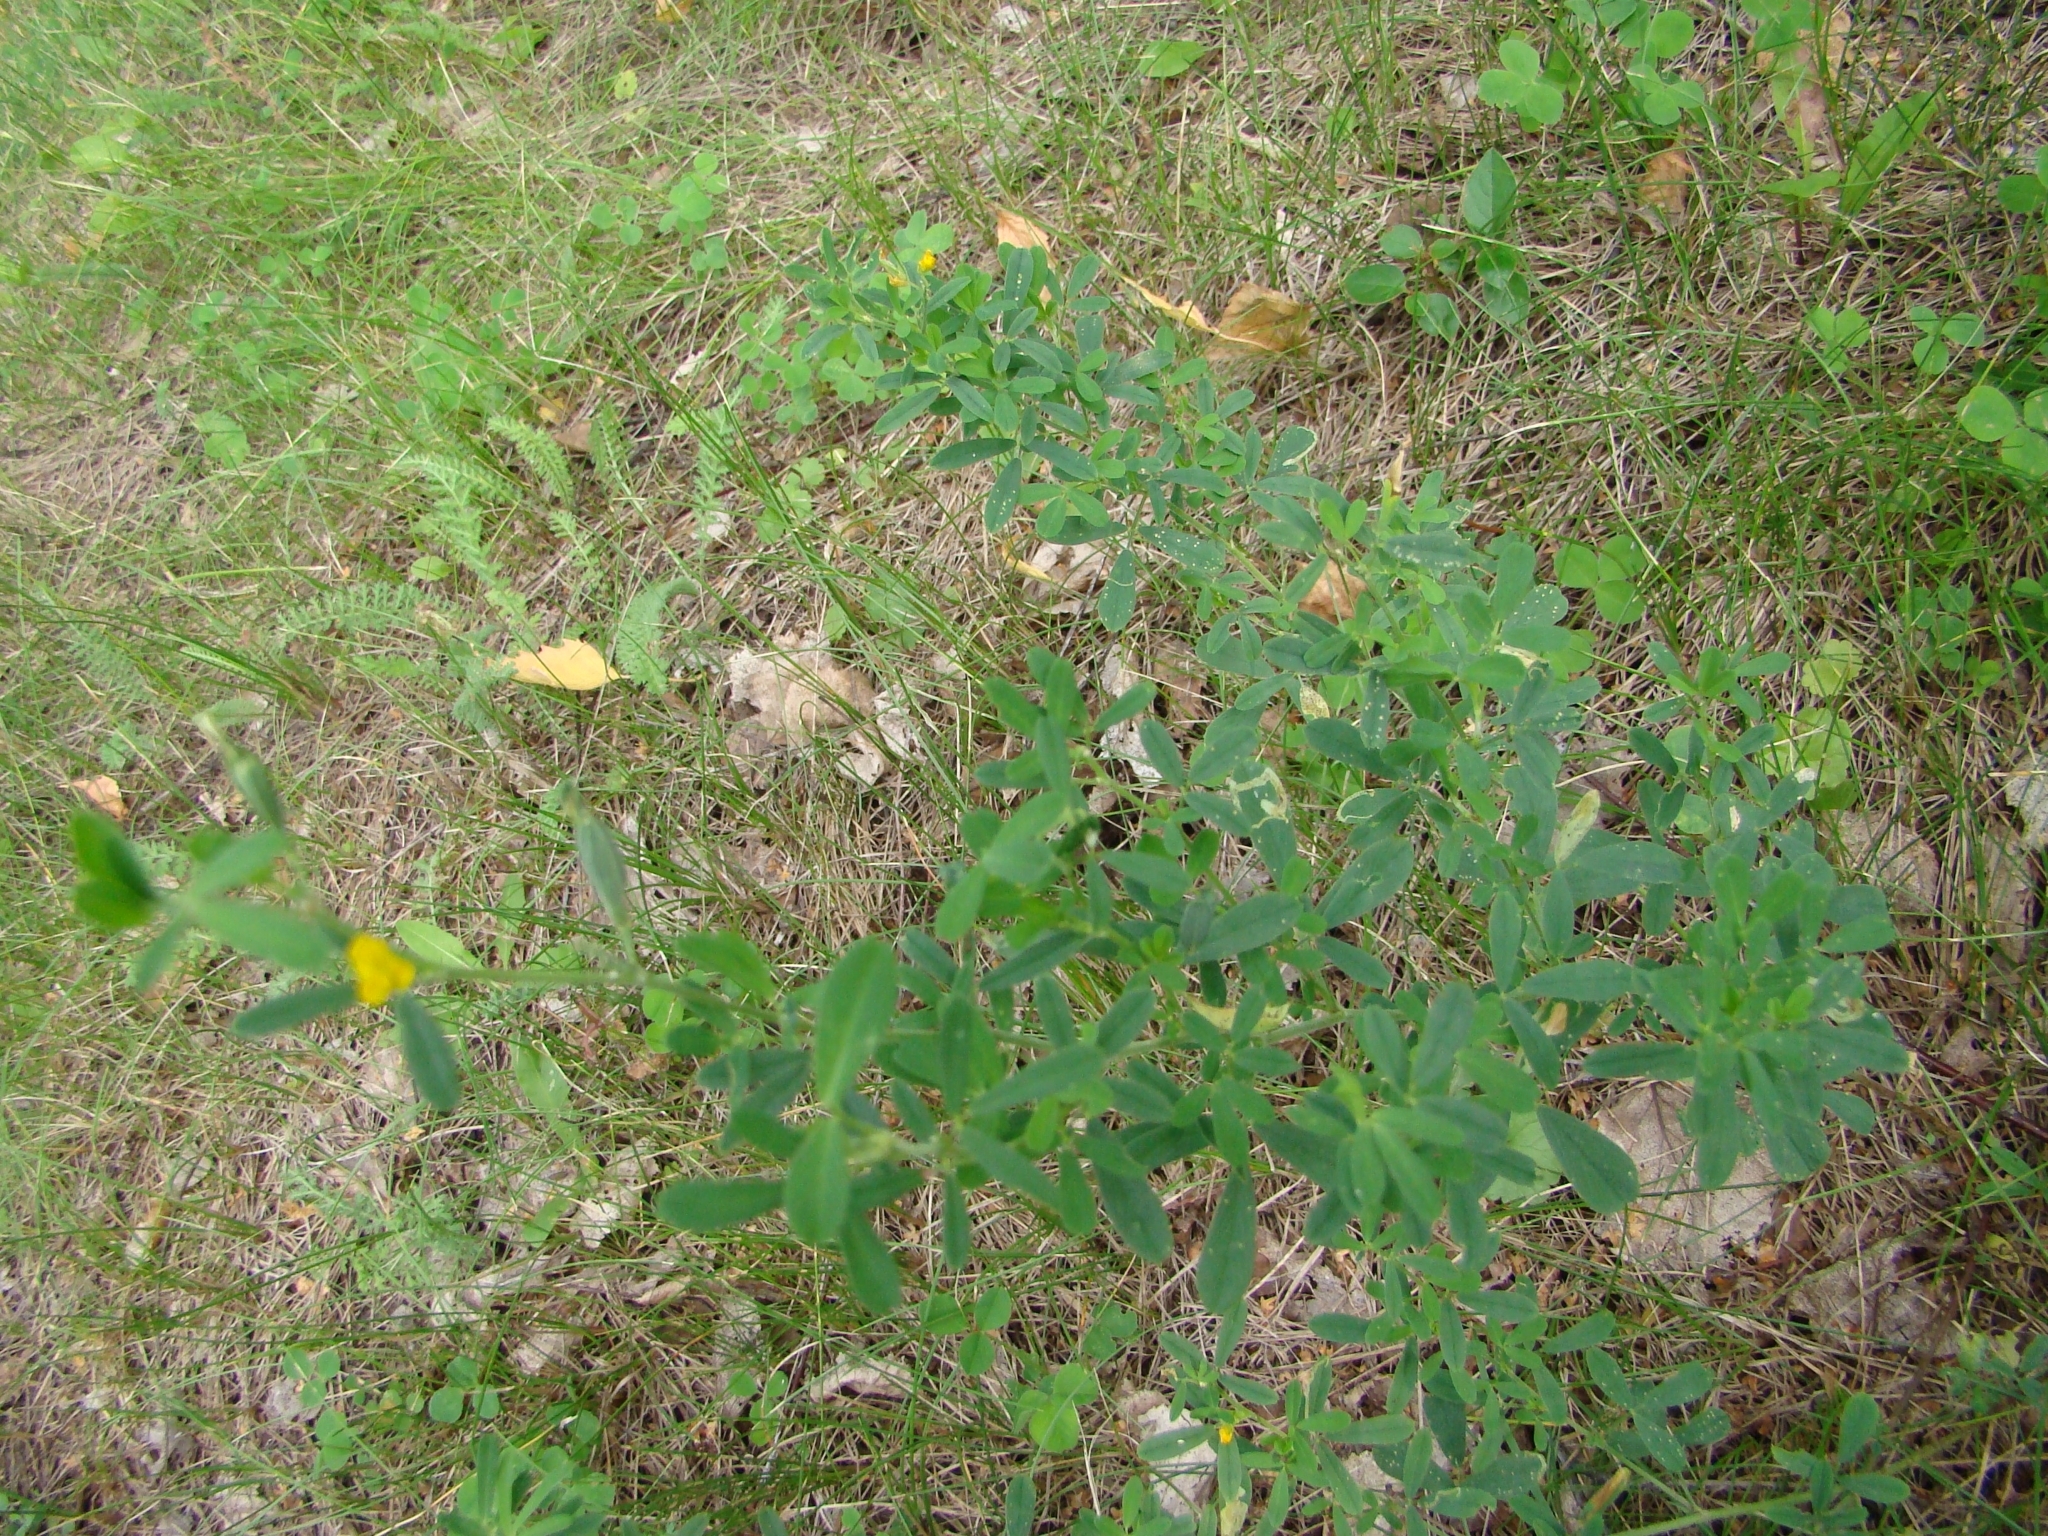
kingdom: Plantae
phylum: Tracheophyta
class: Magnoliopsida
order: Fabales
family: Fabaceae
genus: Medicago
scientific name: Medicago falcata
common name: Sickle medick
